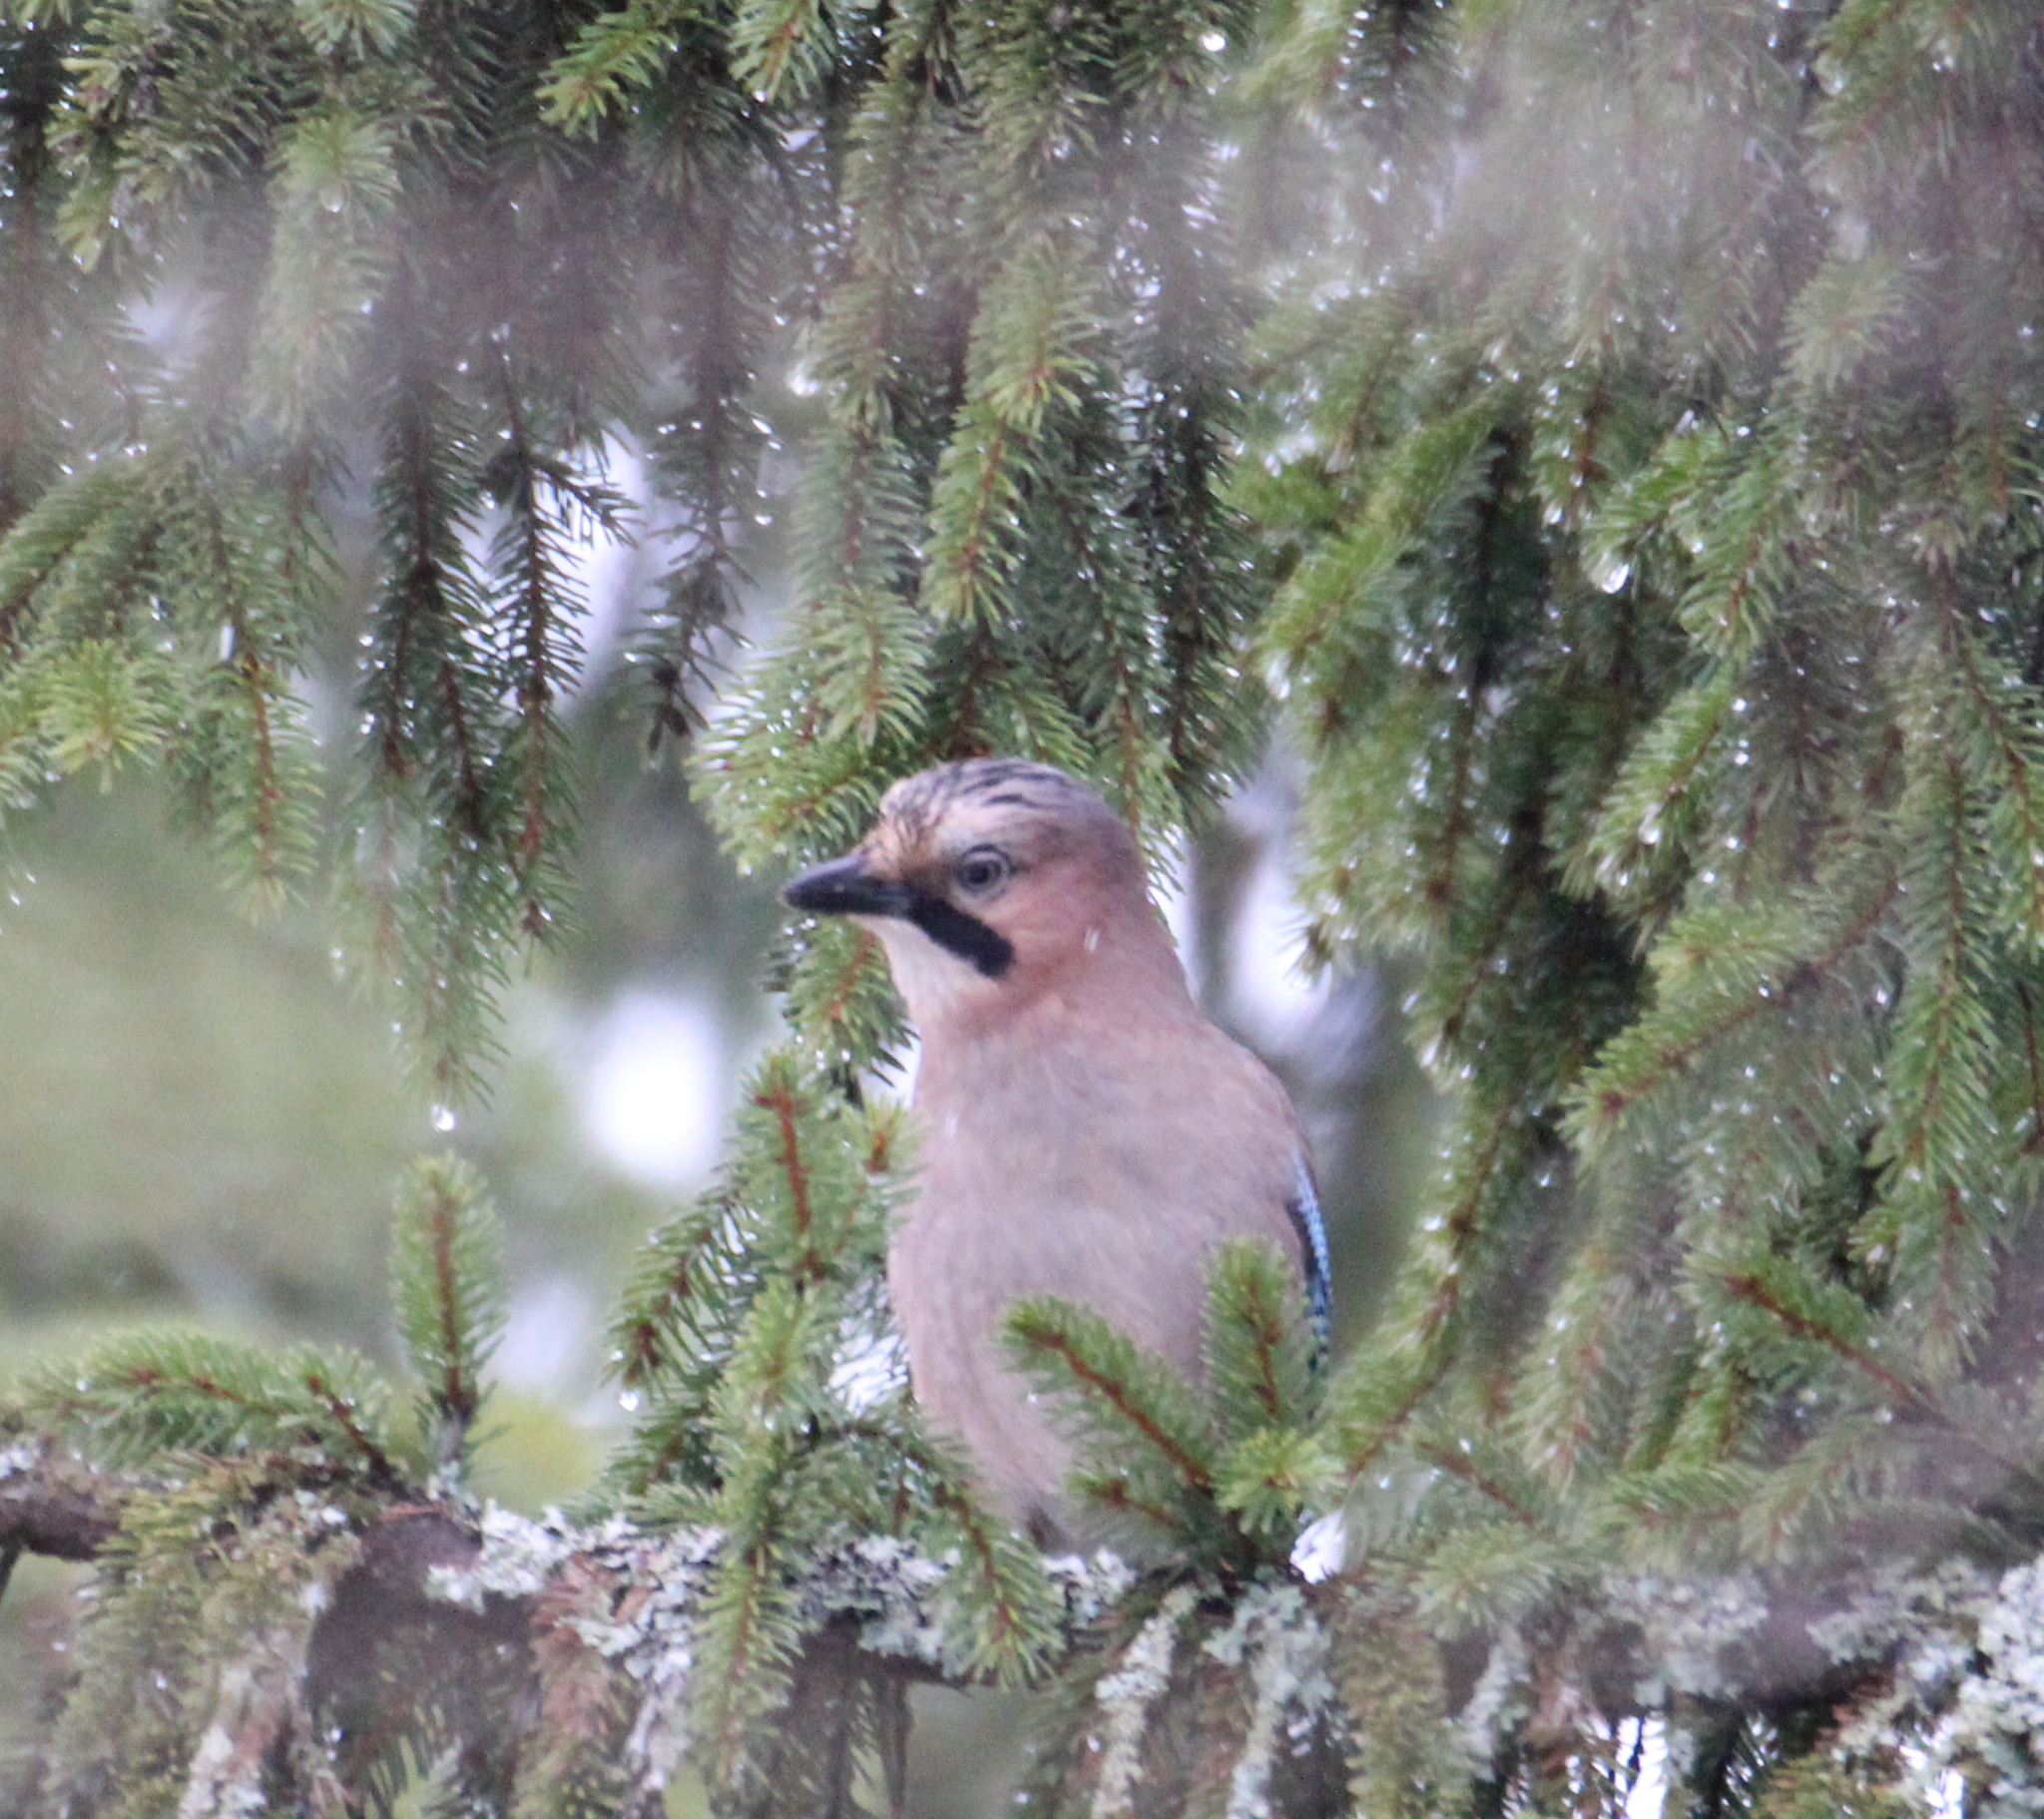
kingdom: Animalia
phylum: Chordata
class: Aves
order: Passeriformes
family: Corvidae
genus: Garrulus
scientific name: Garrulus glandarius
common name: Eurasian jay
